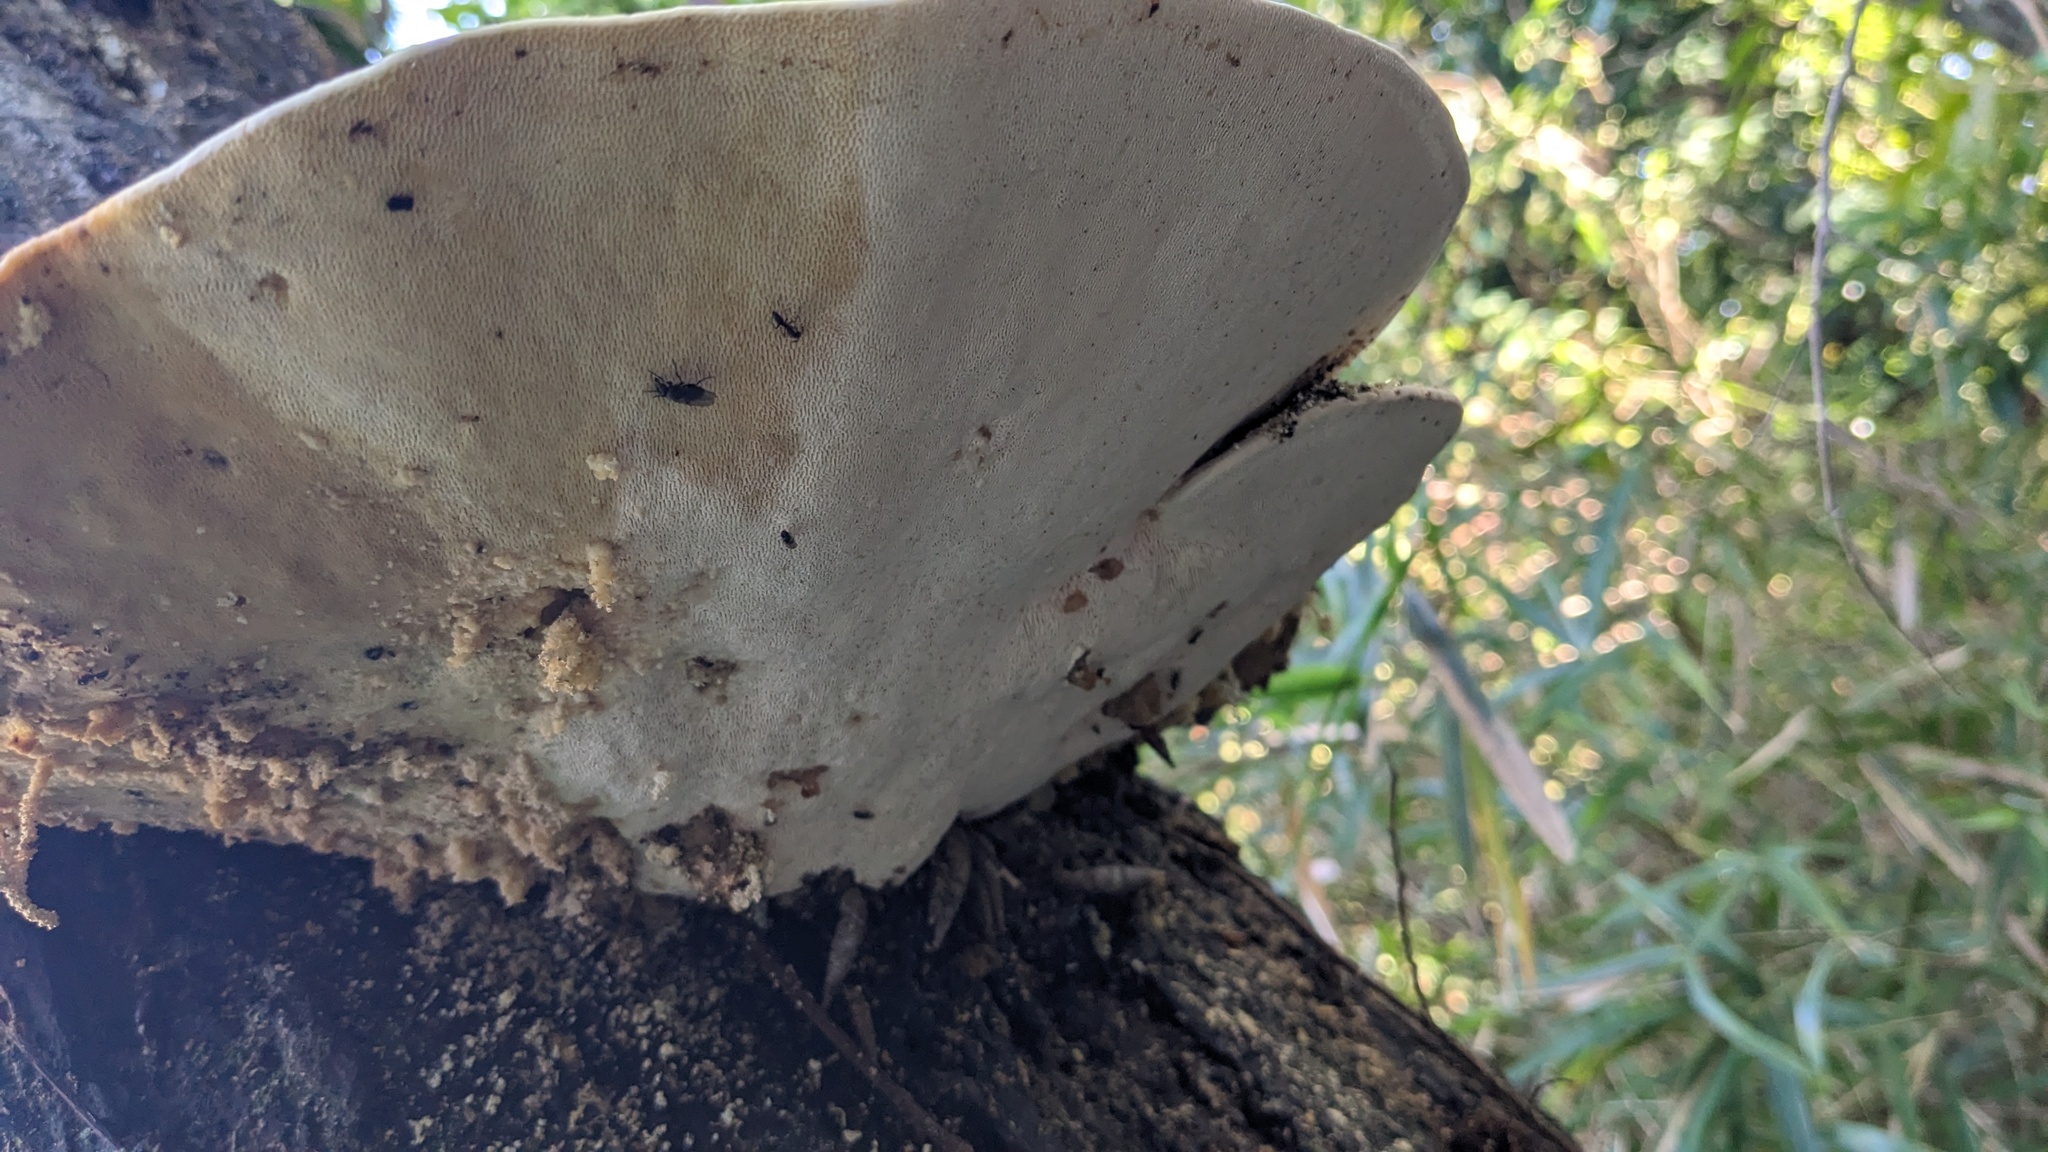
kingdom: Fungi
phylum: Basidiomycota
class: Agaricomycetes
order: Polyporales
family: Polyporaceae
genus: Trametes
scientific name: Trametes elegans
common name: White maze polypore
